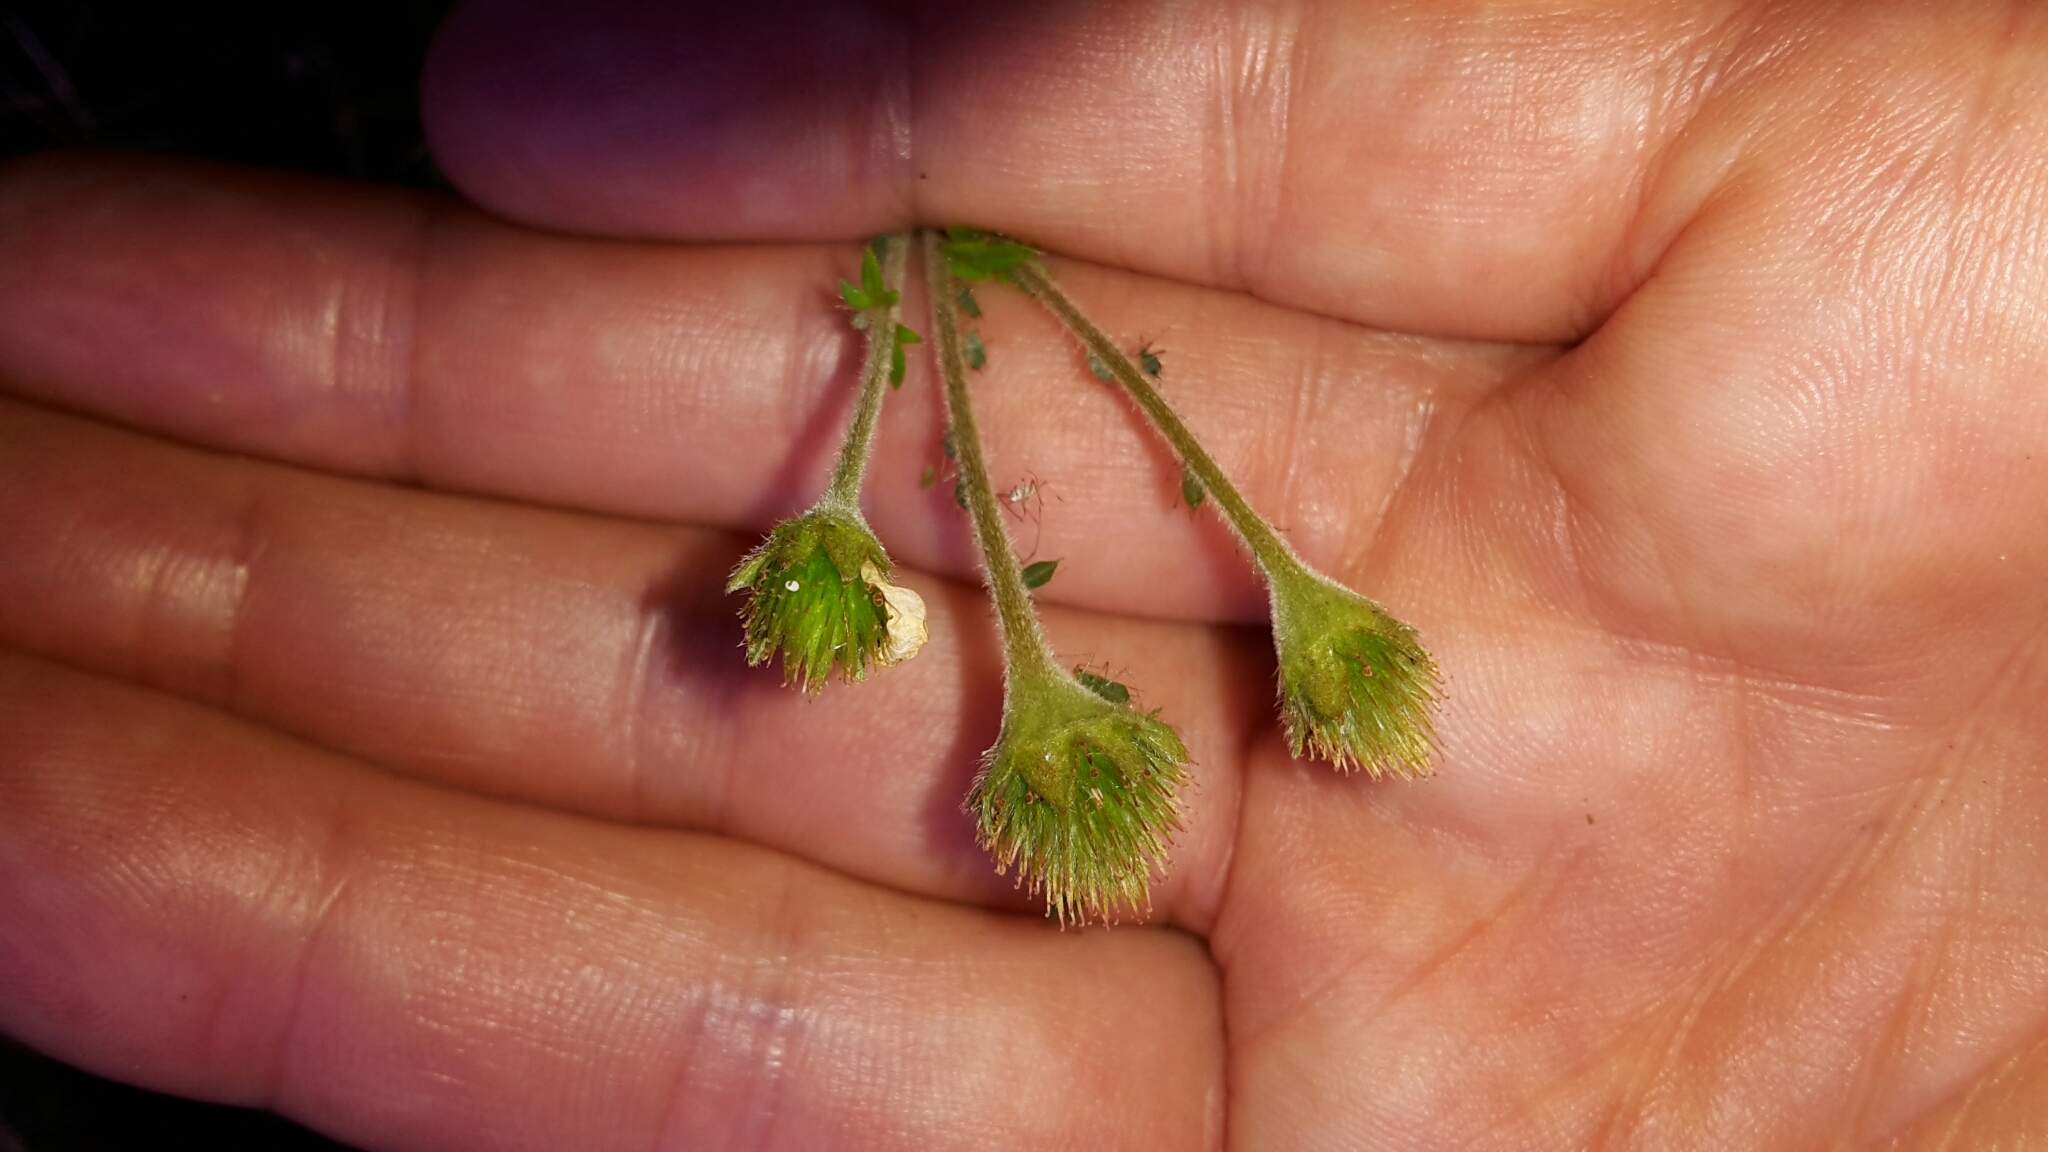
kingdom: Plantae
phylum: Tracheophyta
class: Magnoliopsida
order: Rosales
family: Rosaceae
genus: Geum
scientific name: Geum cockaynei
